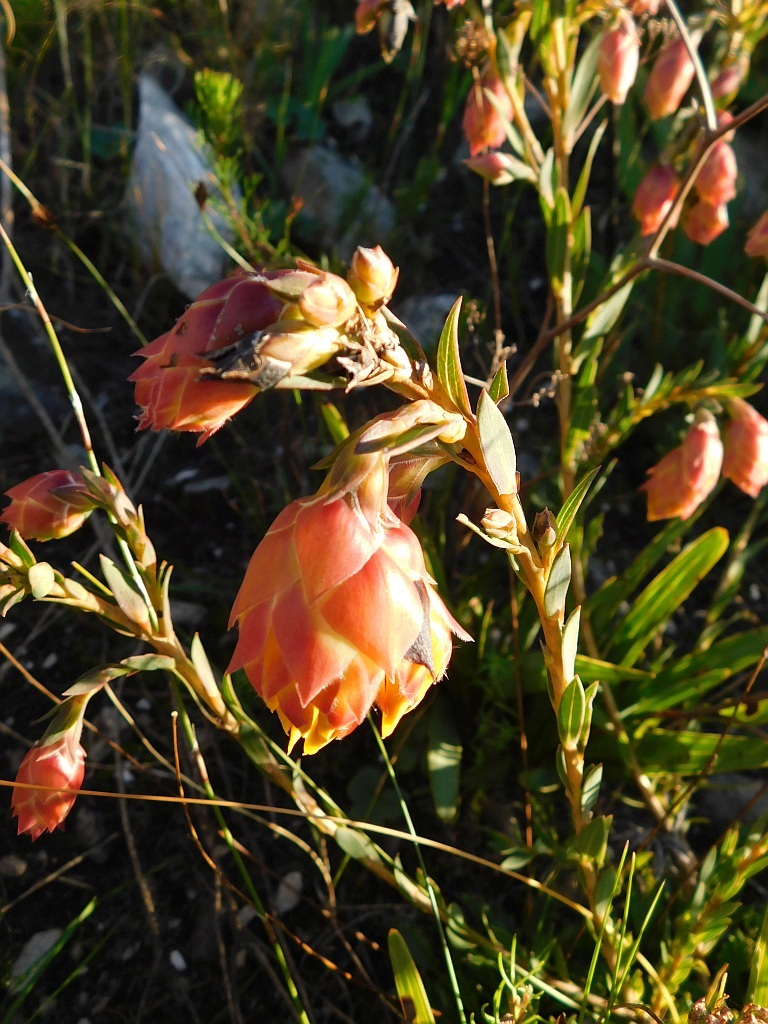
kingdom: Plantae
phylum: Tracheophyta
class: Magnoliopsida
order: Fabales
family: Fabaceae
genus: Liparia
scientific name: Liparia splendens
